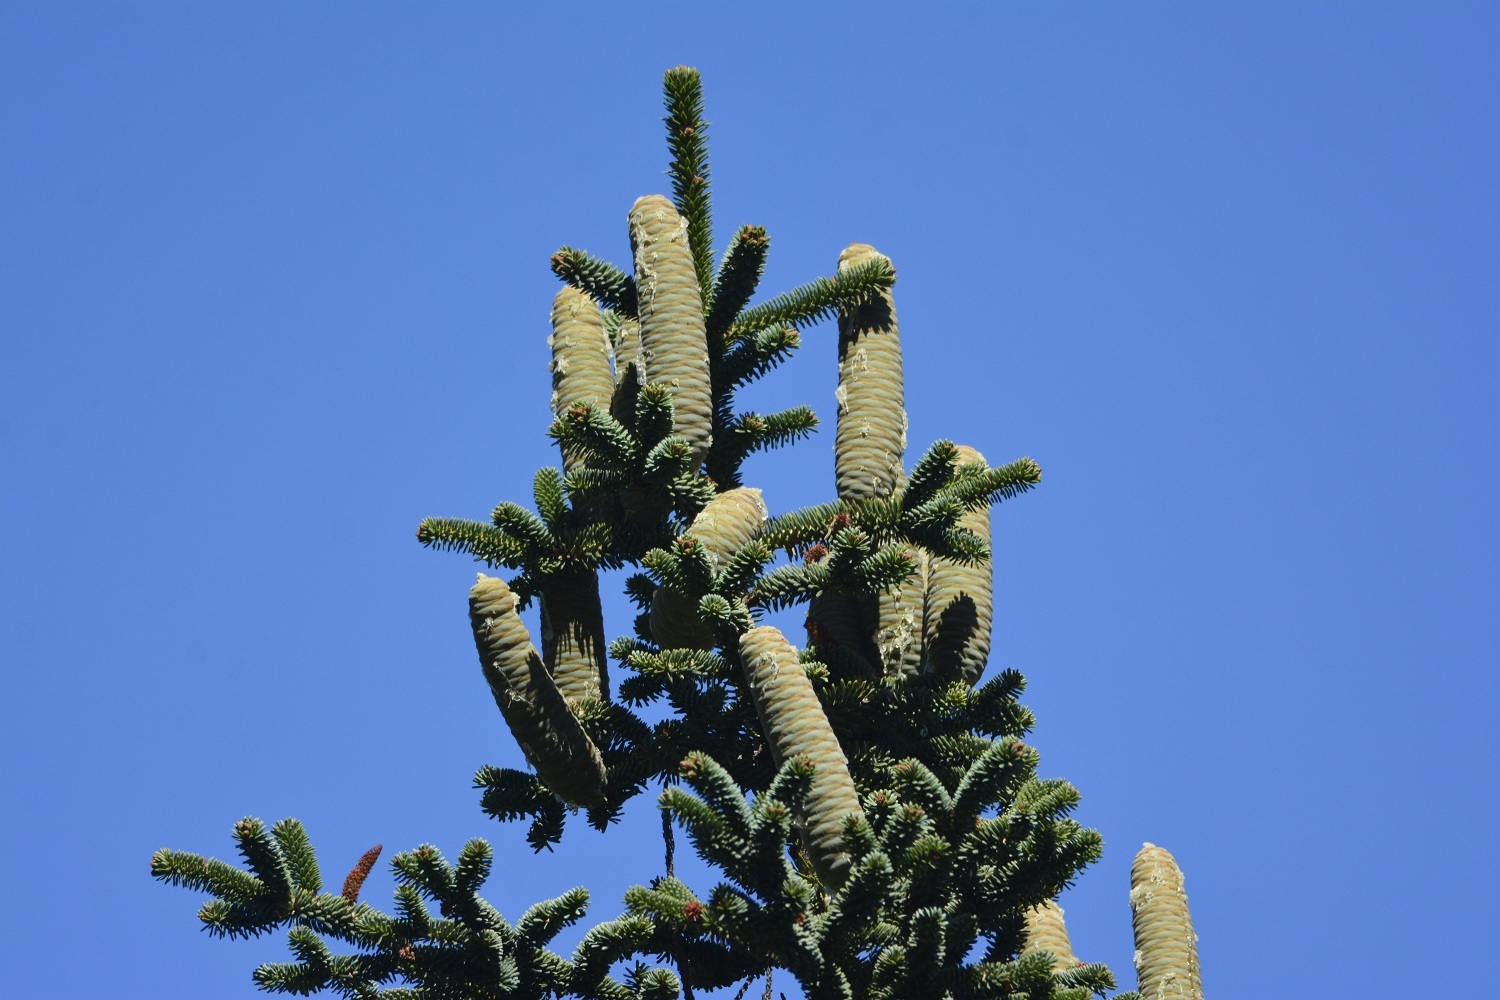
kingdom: Plantae
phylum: Tracheophyta
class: Pinopsida
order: Pinales
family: Pinaceae
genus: Abies
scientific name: Abies numidica
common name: Algerian fir
